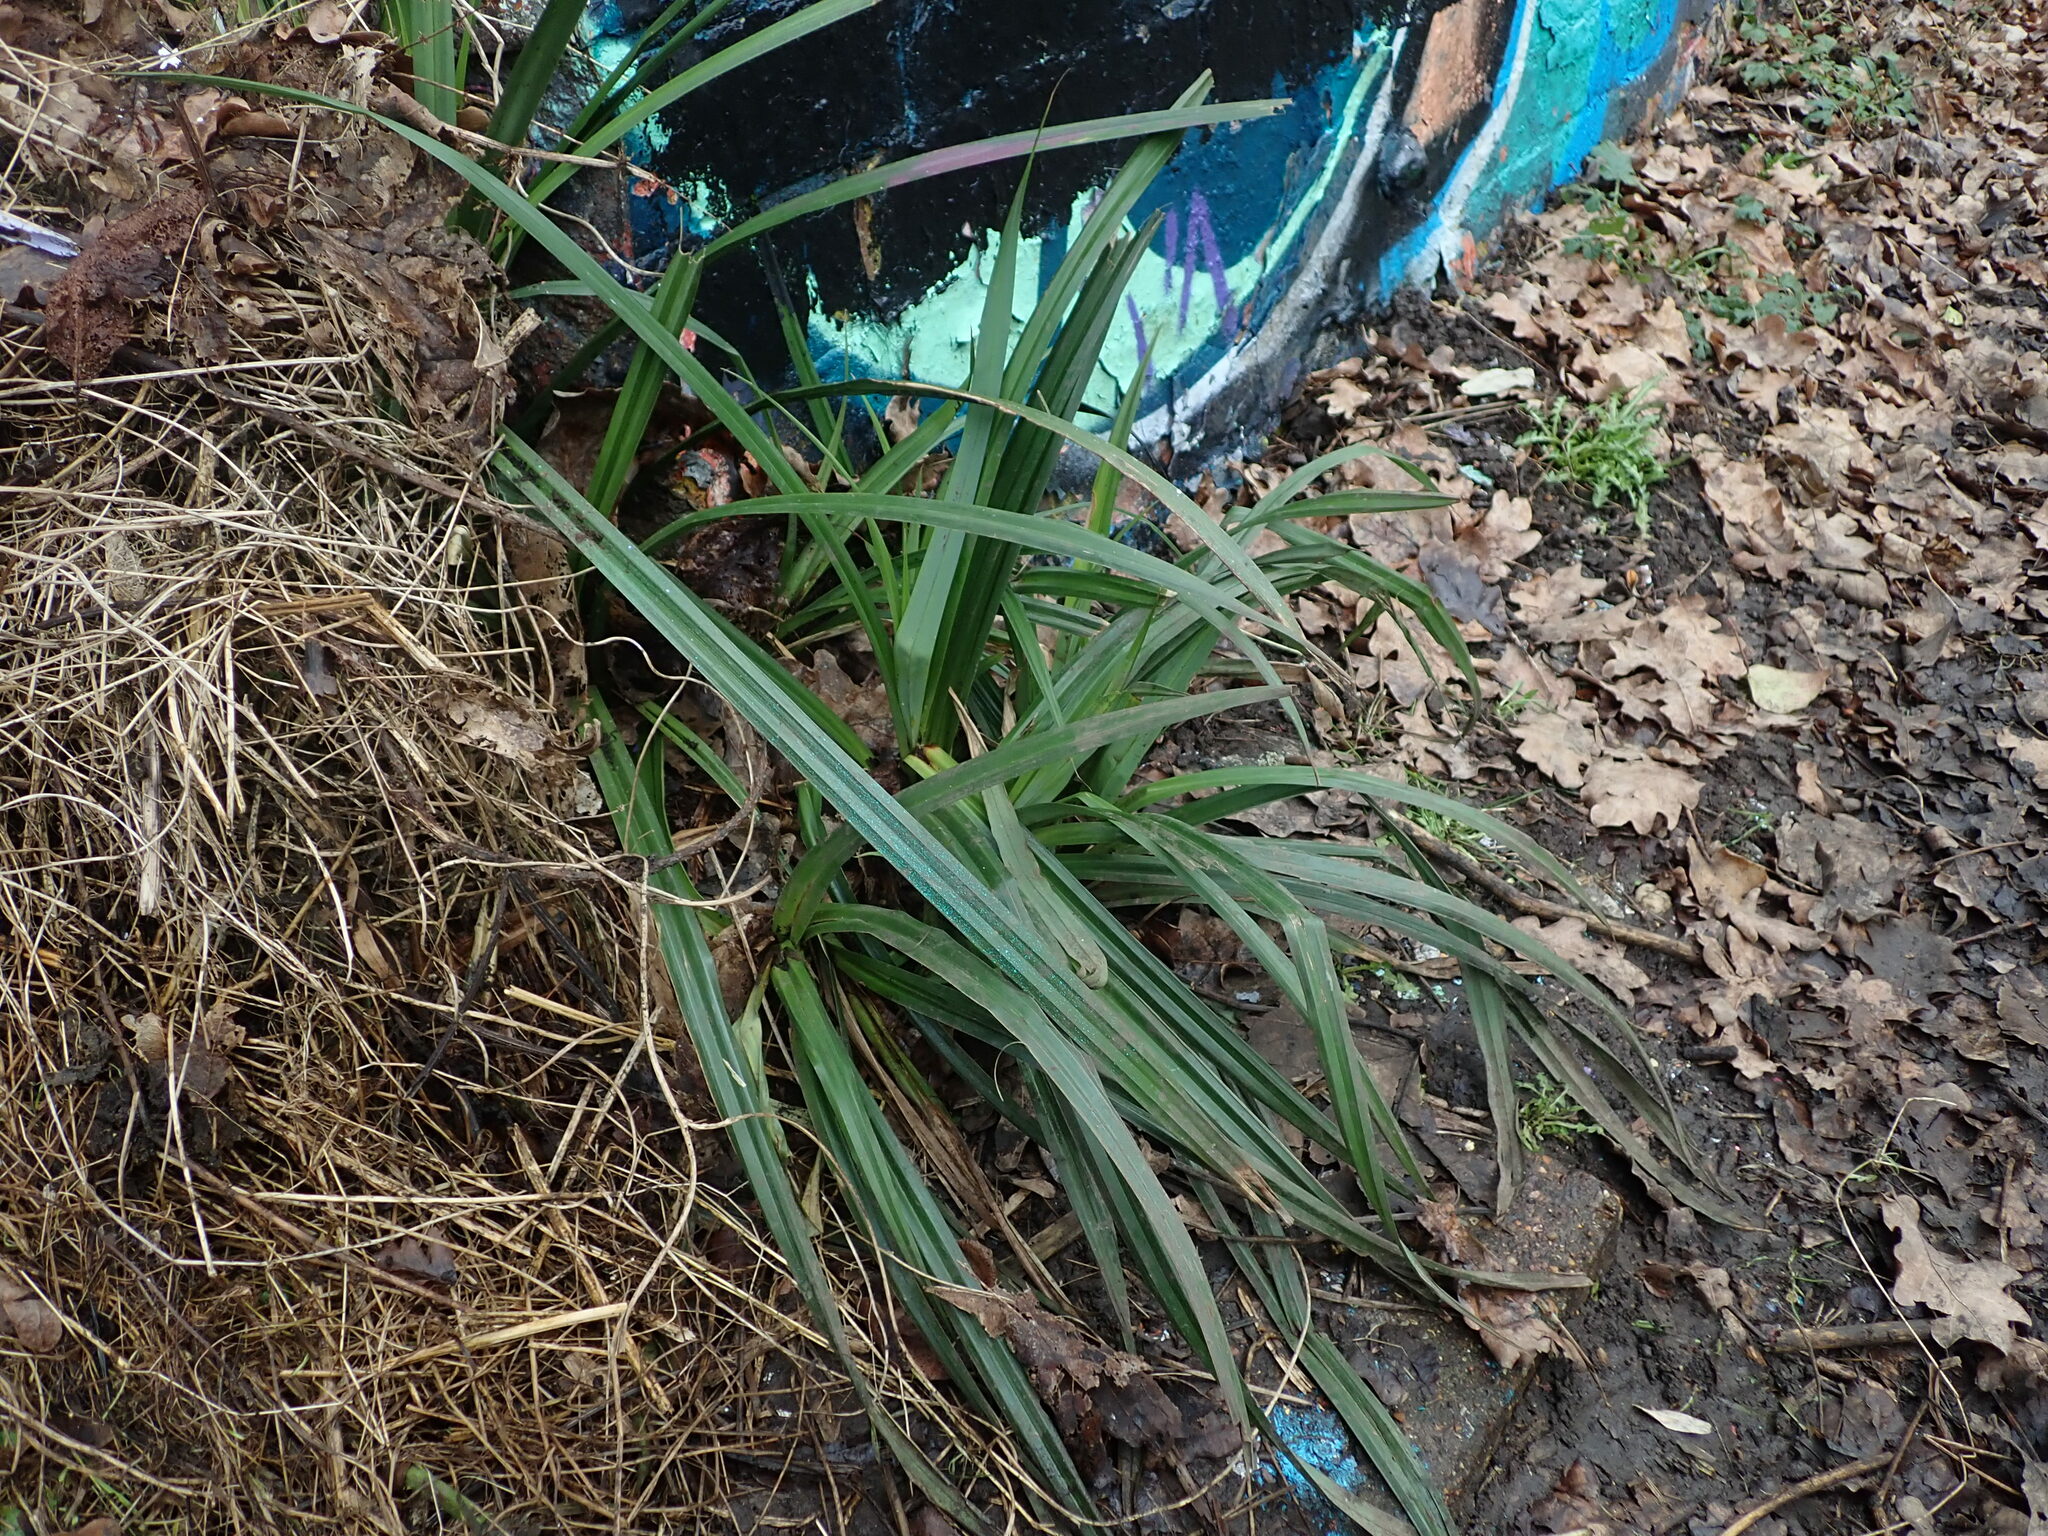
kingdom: Plantae
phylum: Tracheophyta
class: Liliopsida
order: Poales
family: Cyperaceae
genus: Carex
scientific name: Carex pendula
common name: Pendulous sedge
